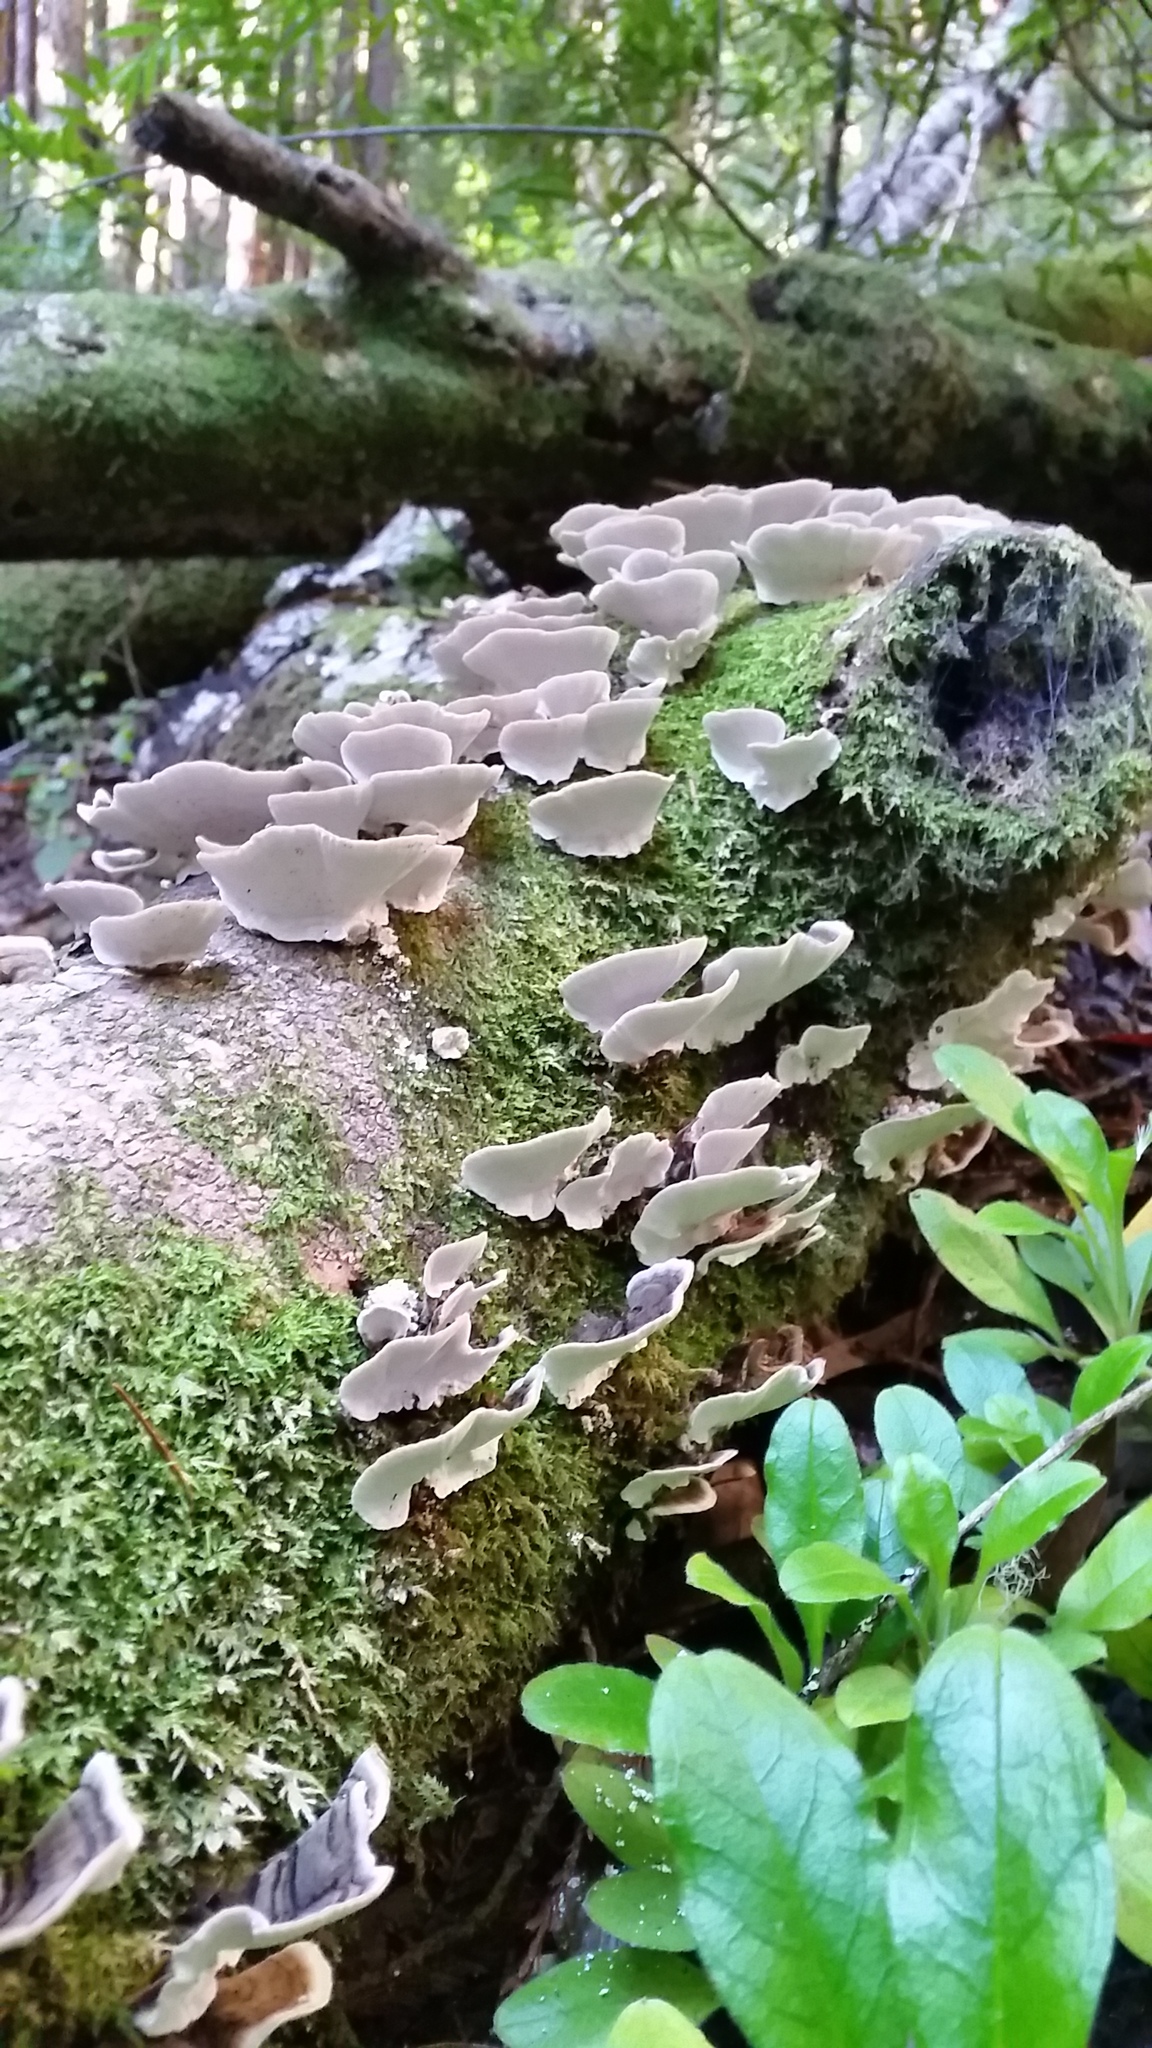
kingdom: Fungi
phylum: Basidiomycota
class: Agaricomycetes
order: Polyporales
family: Polyporaceae
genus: Trametes
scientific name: Trametes versicolor
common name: Turkeytail
